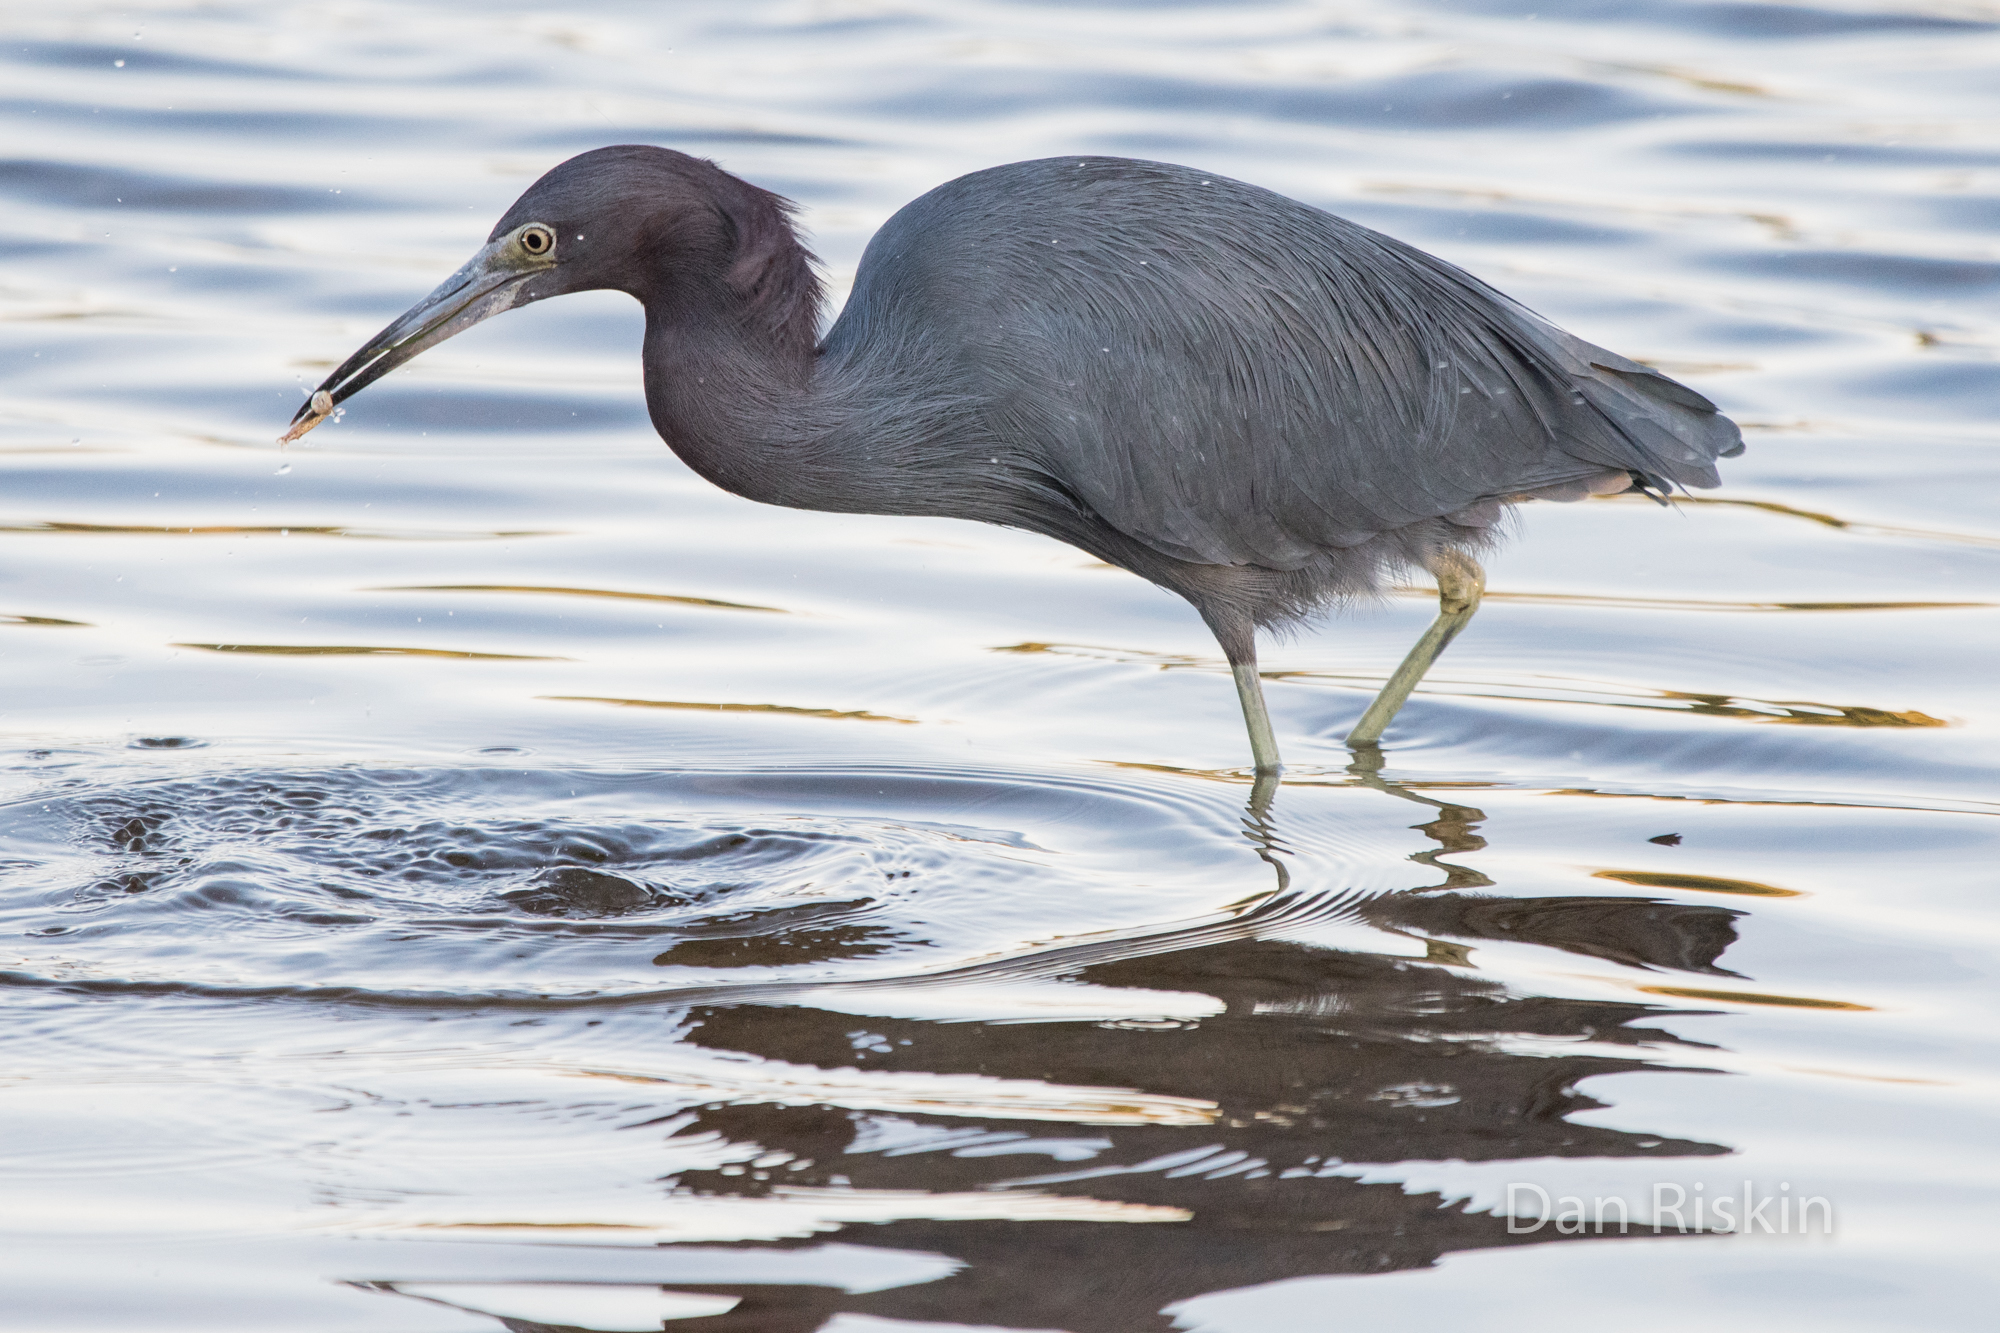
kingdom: Animalia
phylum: Chordata
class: Aves
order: Pelecaniformes
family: Ardeidae
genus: Egretta
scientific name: Egretta caerulea
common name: Little blue heron
